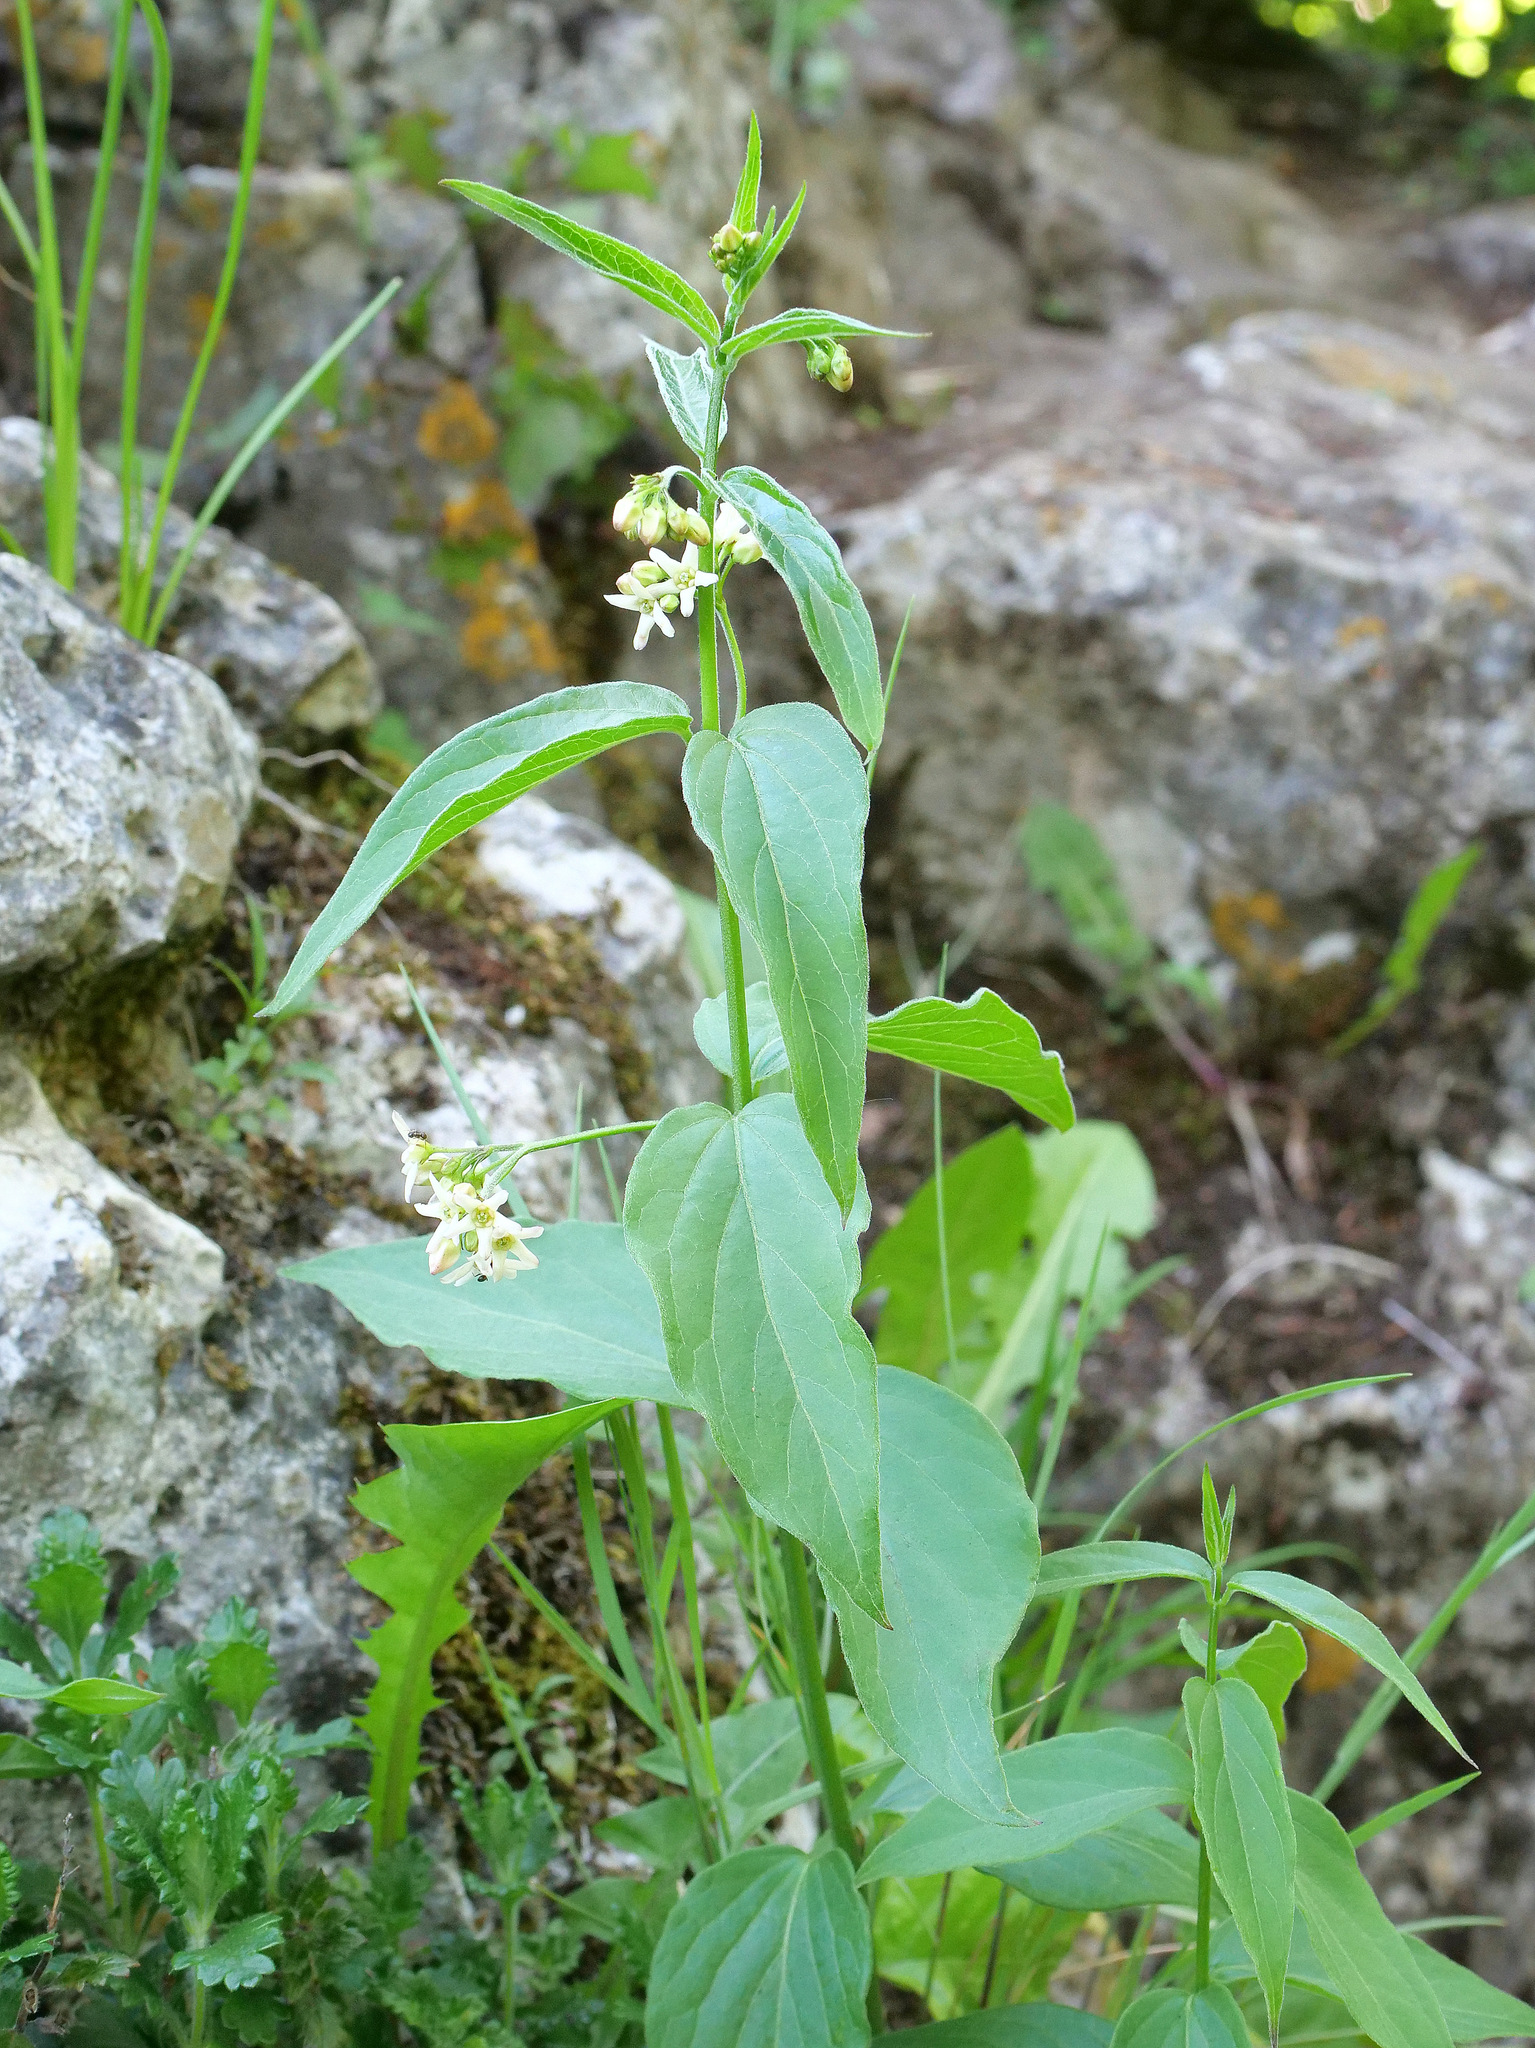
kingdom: Plantae
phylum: Tracheophyta
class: Magnoliopsida
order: Gentianales
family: Apocynaceae
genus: Vincetoxicum
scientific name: Vincetoxicum hirundinaria
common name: White swallowwort
